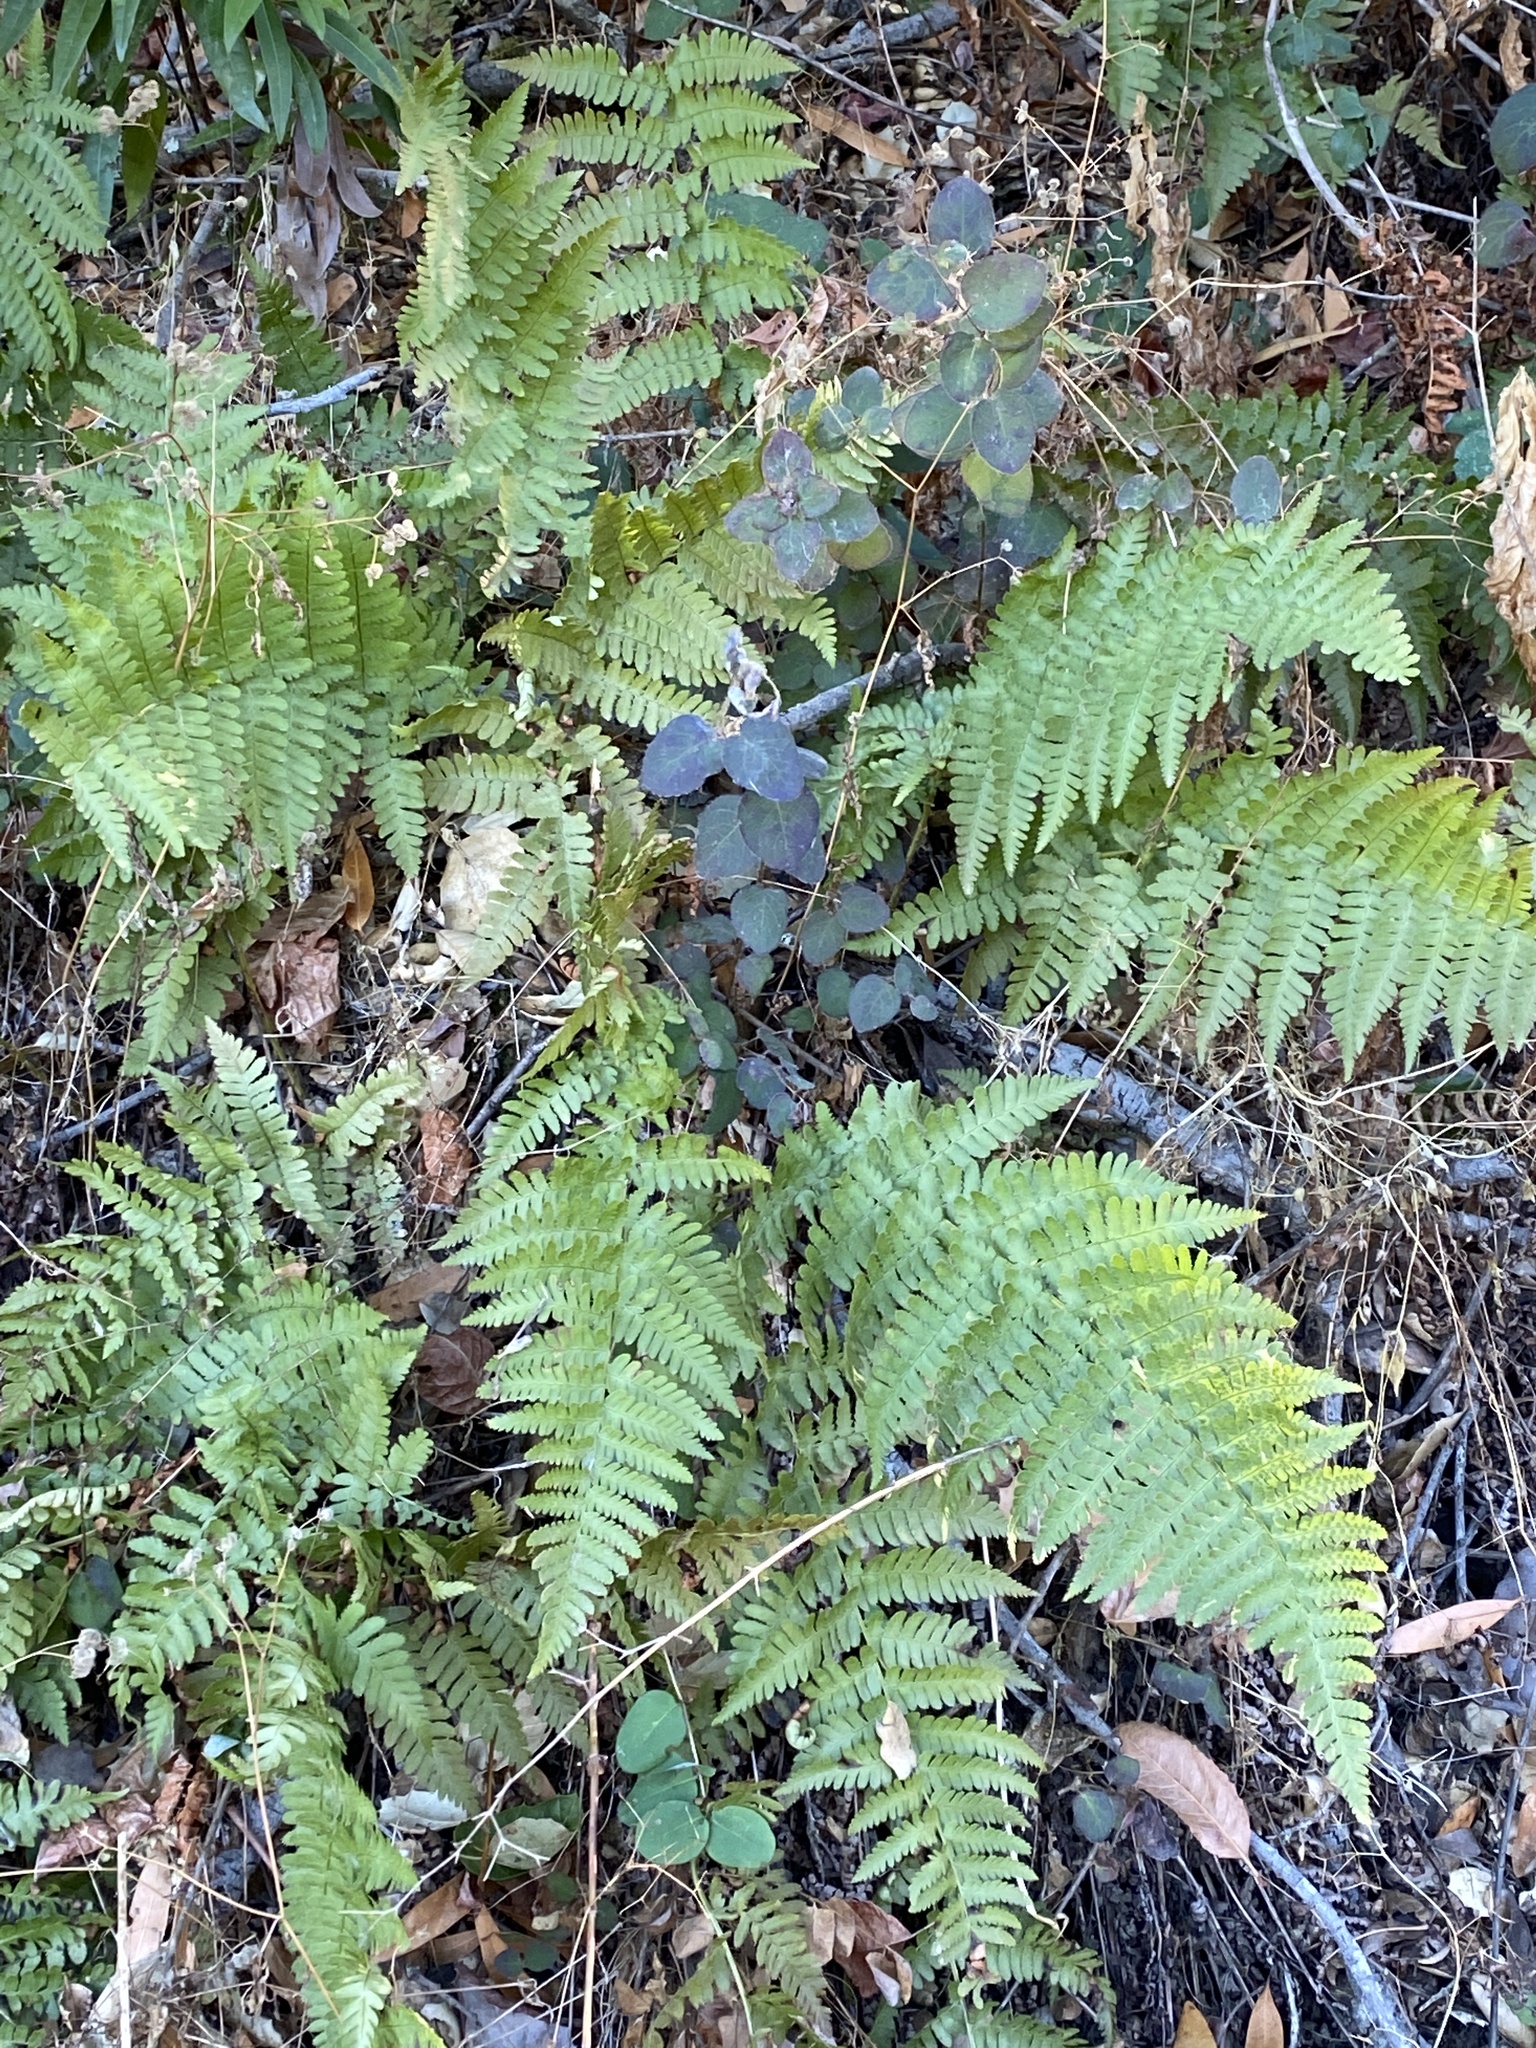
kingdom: Plantae
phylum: Tracheophyta
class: Polypodiopsida
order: Polypodiales
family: Dryopteridaceae
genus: Dryopteris
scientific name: Dryopteris arguta
